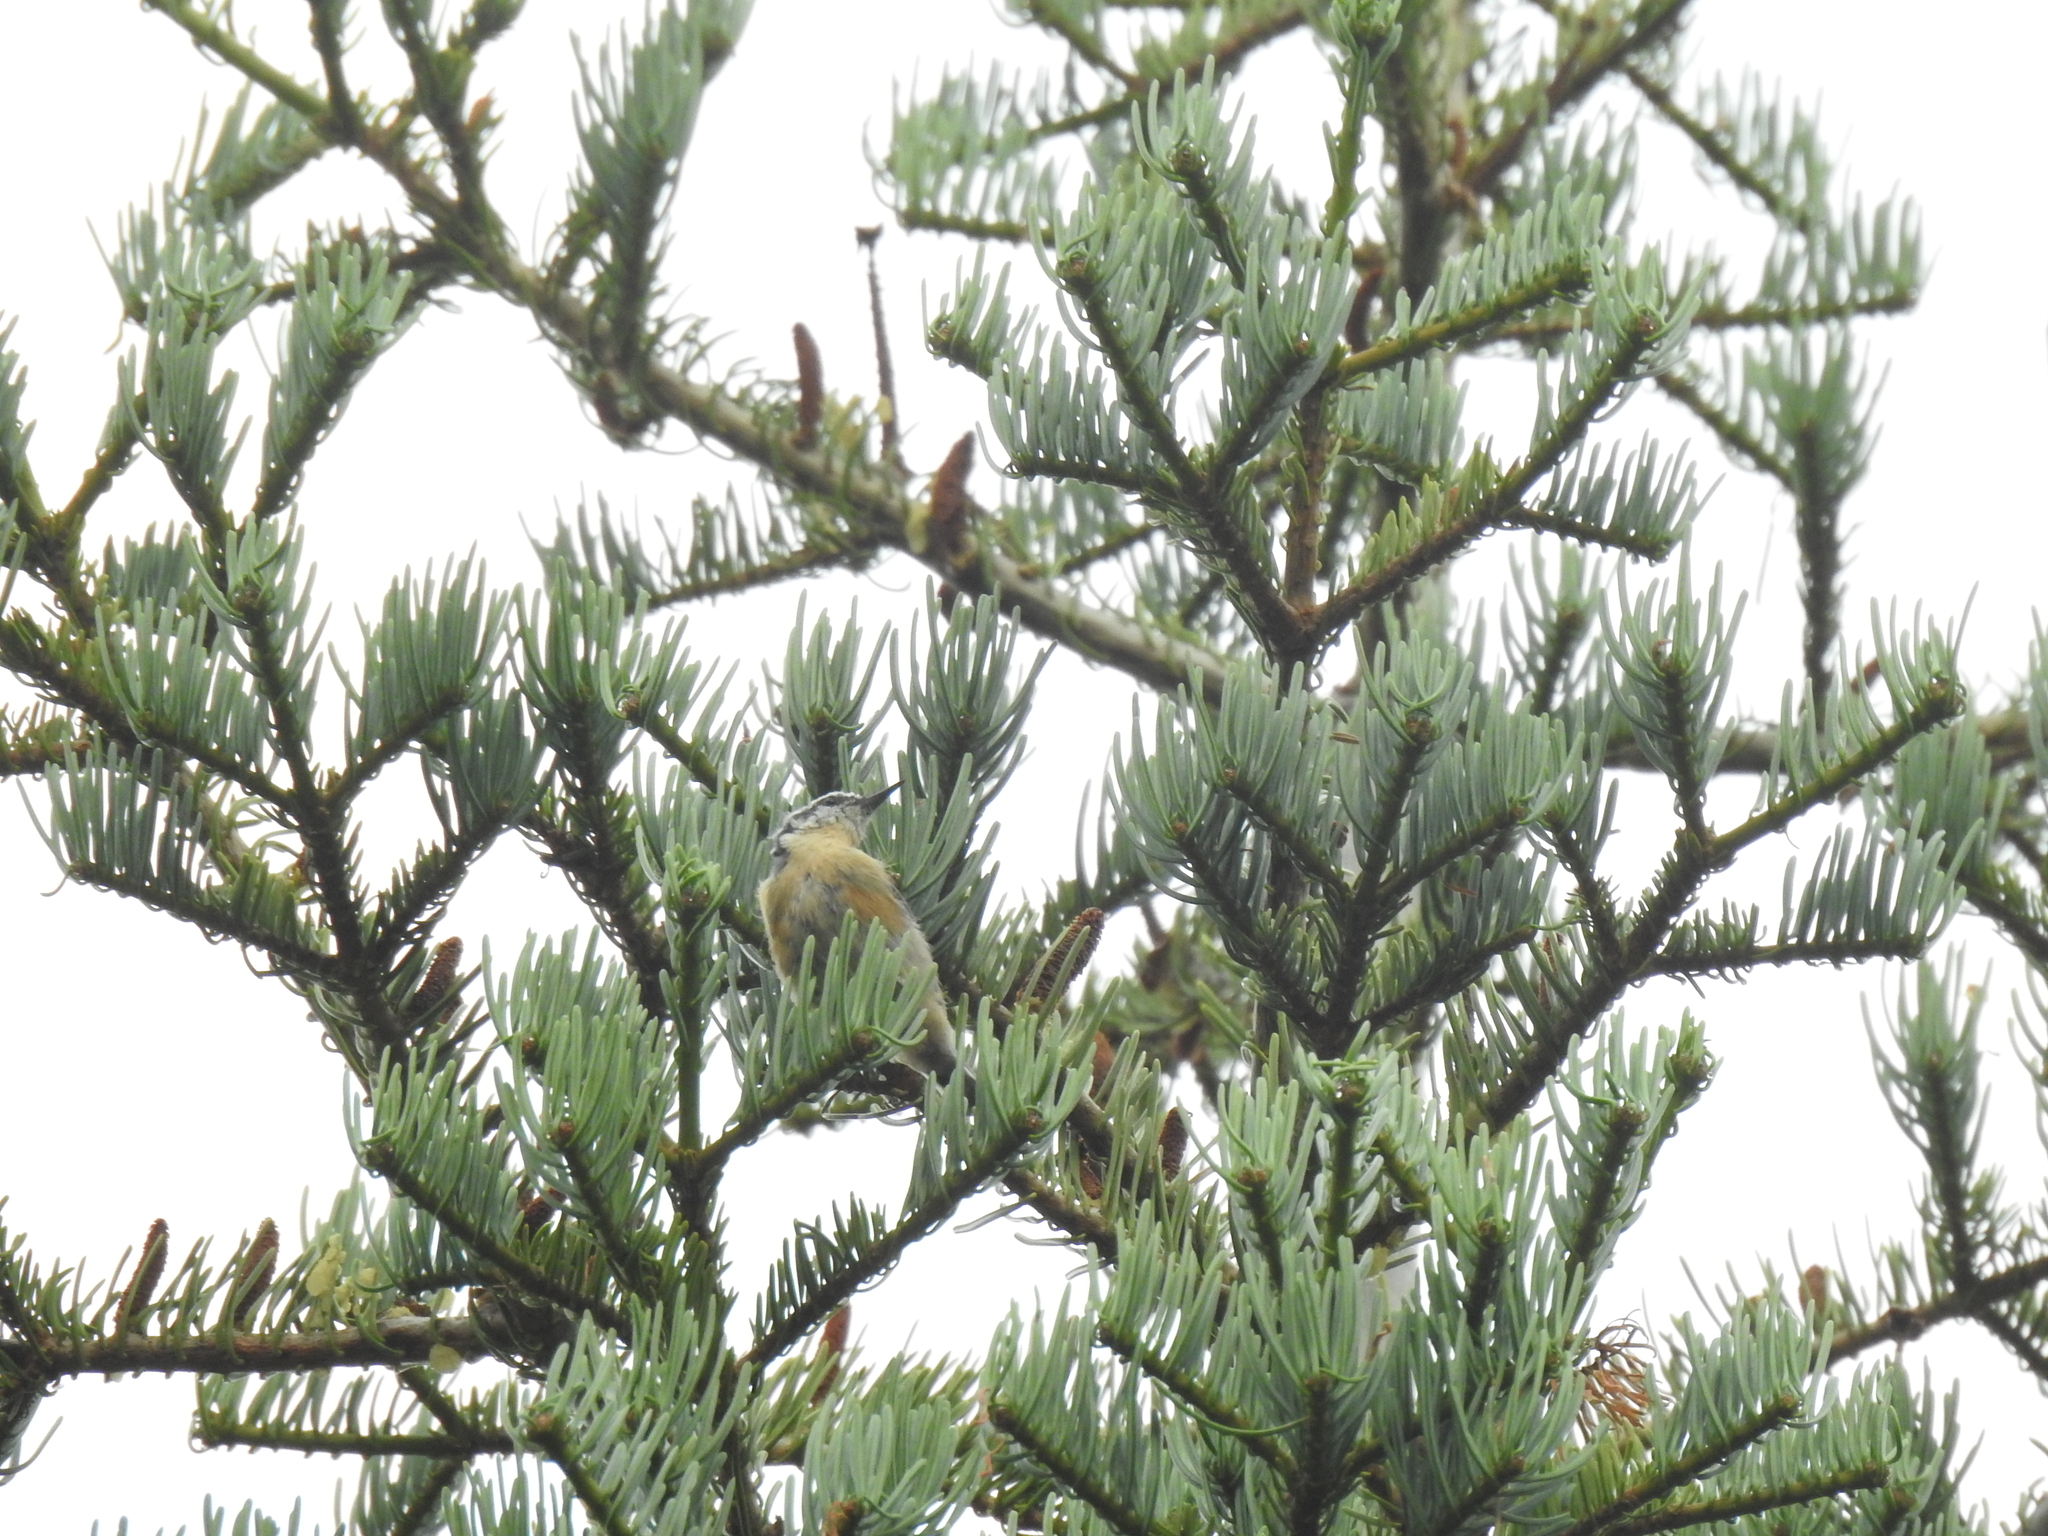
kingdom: Animalia
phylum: Chordata
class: Aves
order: Passeriformes
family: Sittidae
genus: Sitta
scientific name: Sitta canadensis
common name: Red-breasted nuthatch
